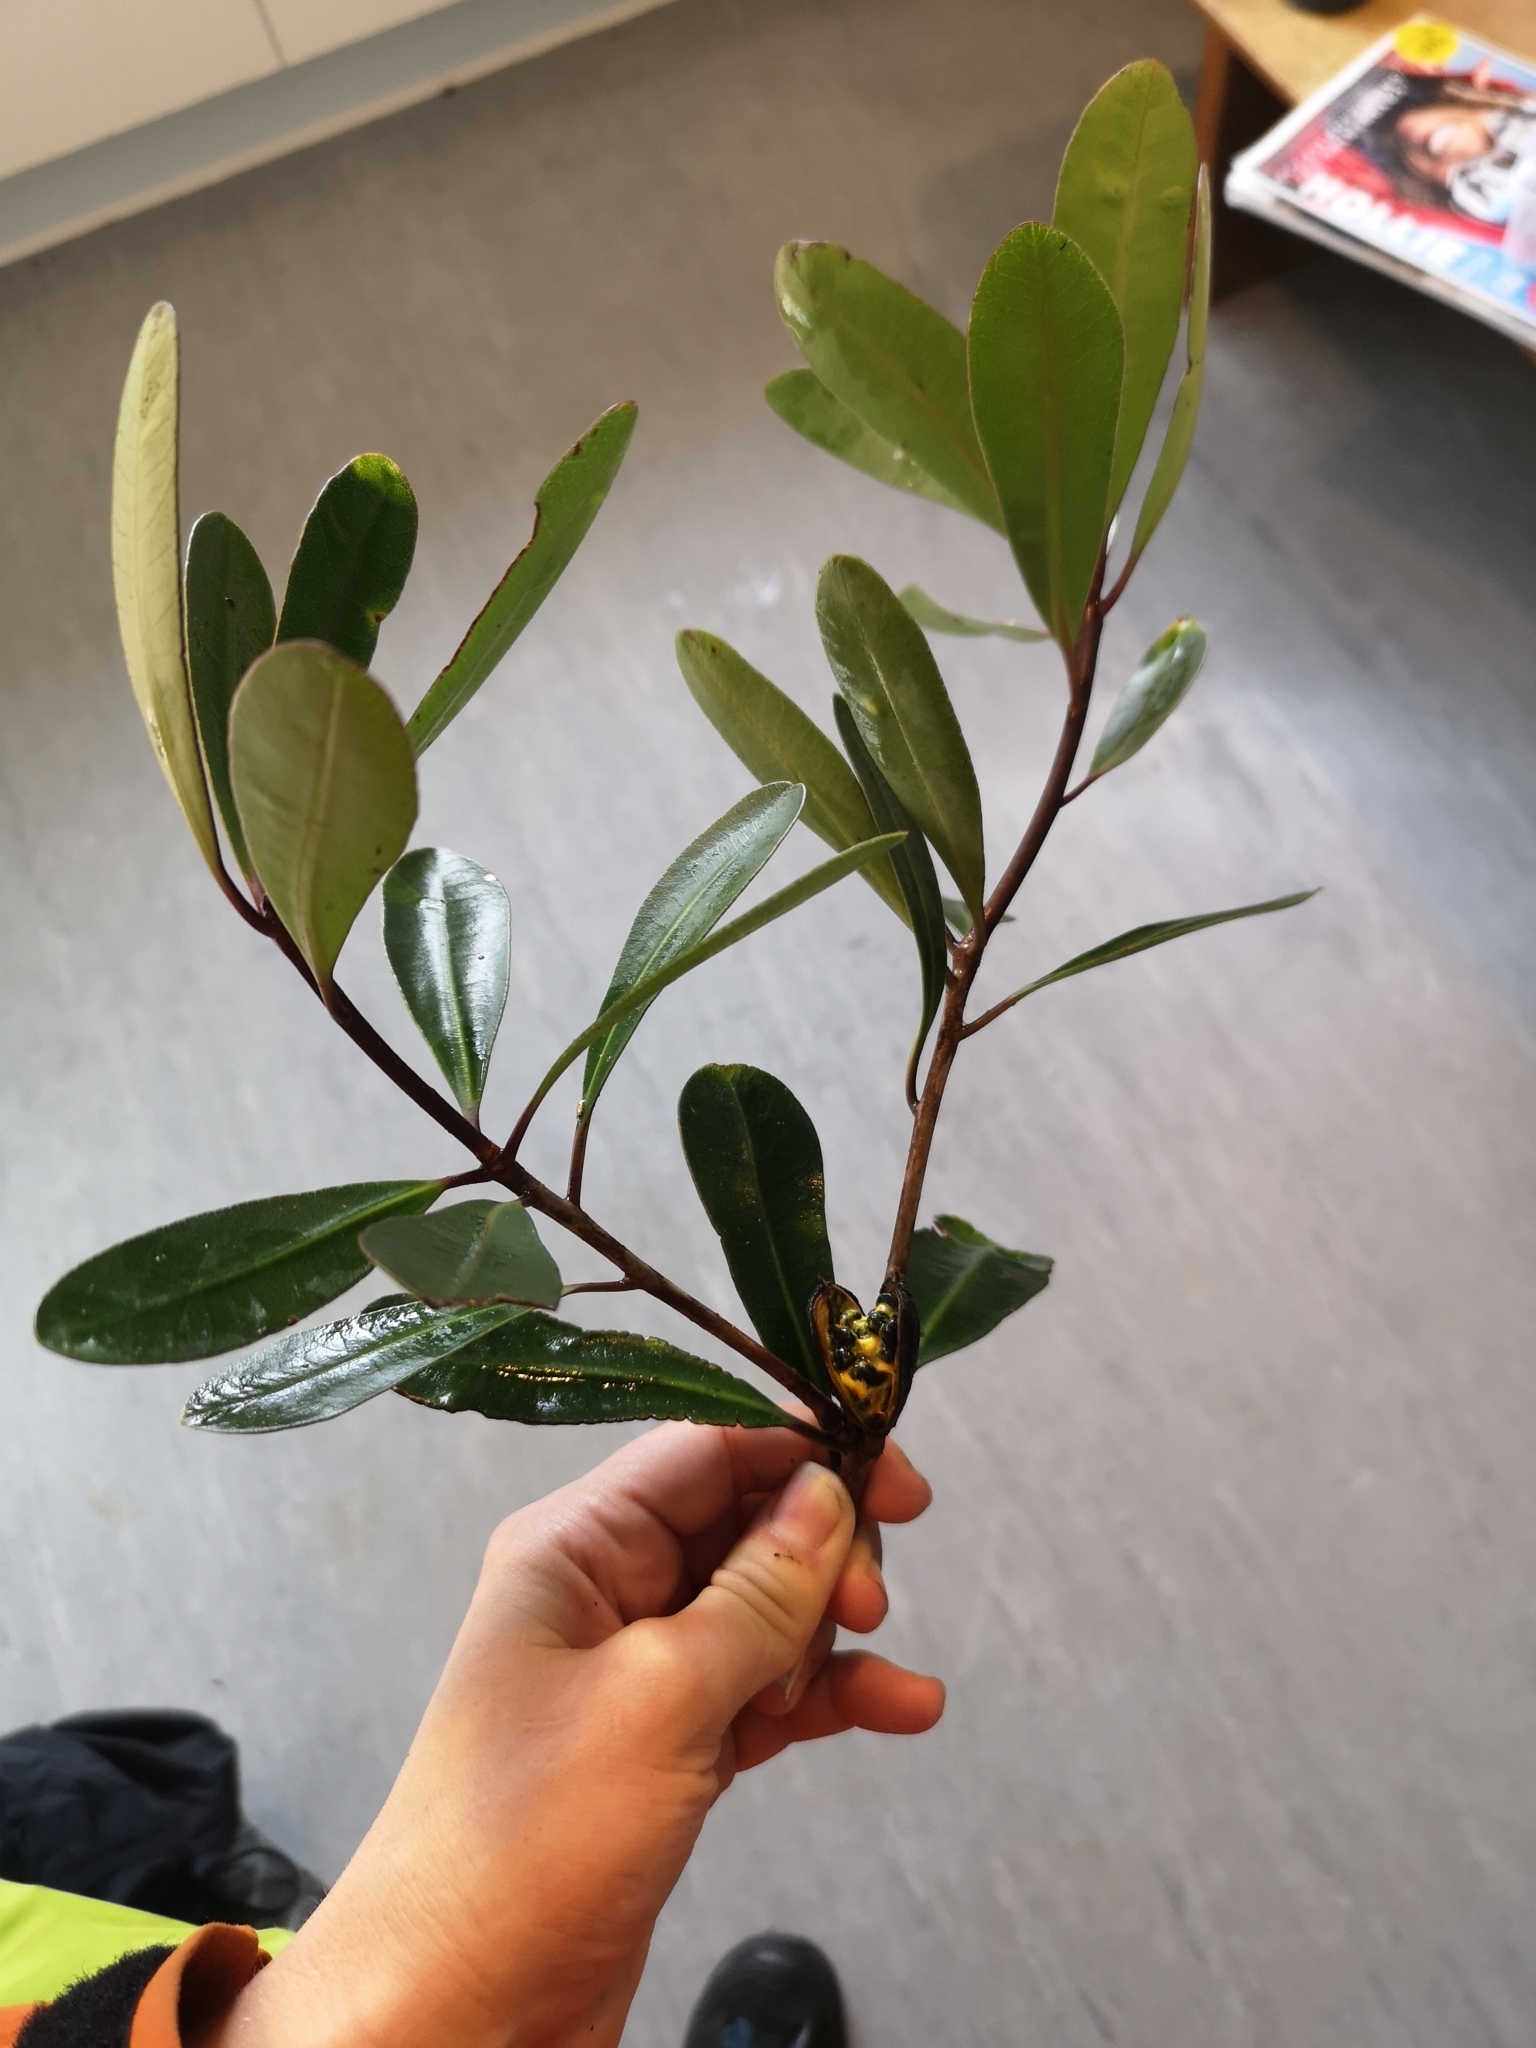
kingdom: Plantae
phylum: Tracheophyta
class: Magnoliopsida
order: Apiales
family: Pittosporaceae
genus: Pittosporum
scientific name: Pittosporum kirkii
